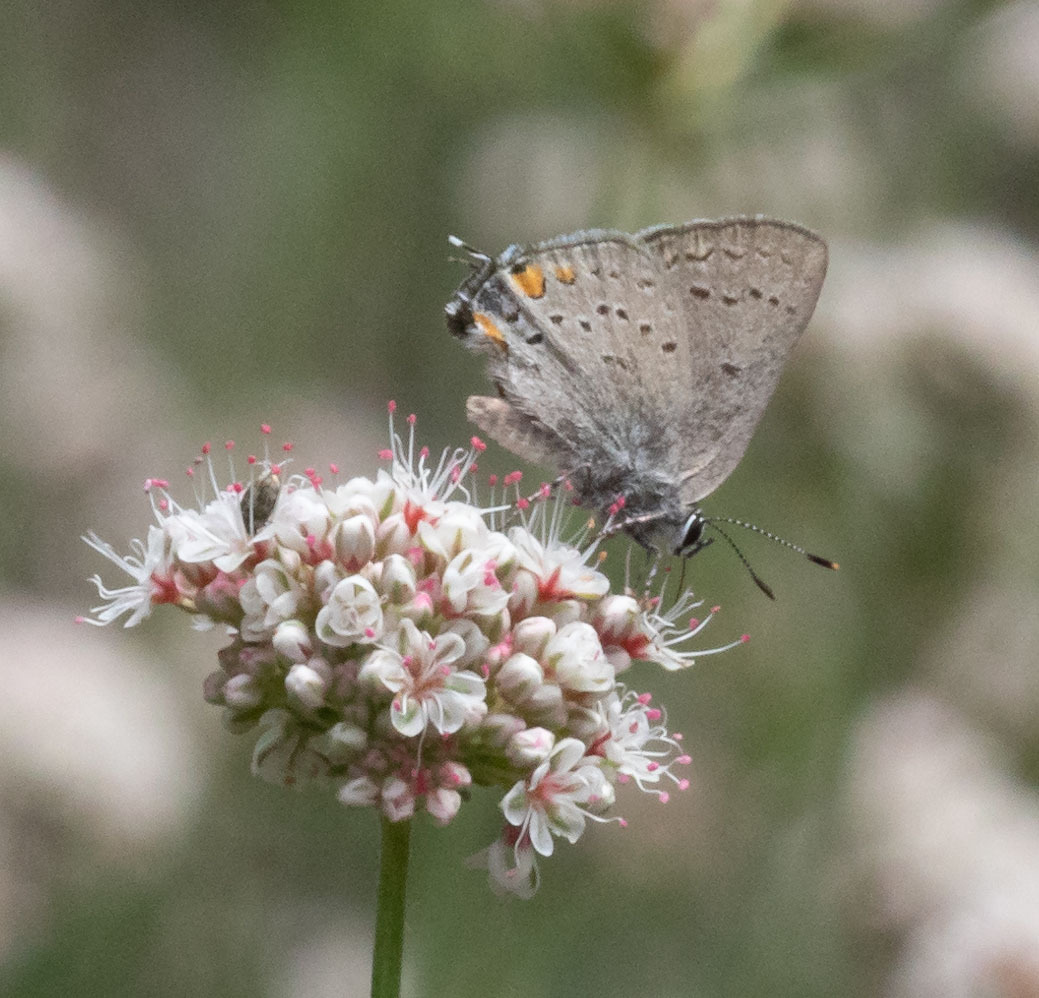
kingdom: Animalia
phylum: Arthropoda
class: Insecta
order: Lepidoptera
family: Lycaenidae
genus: Strymon
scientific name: Strymon acadica
